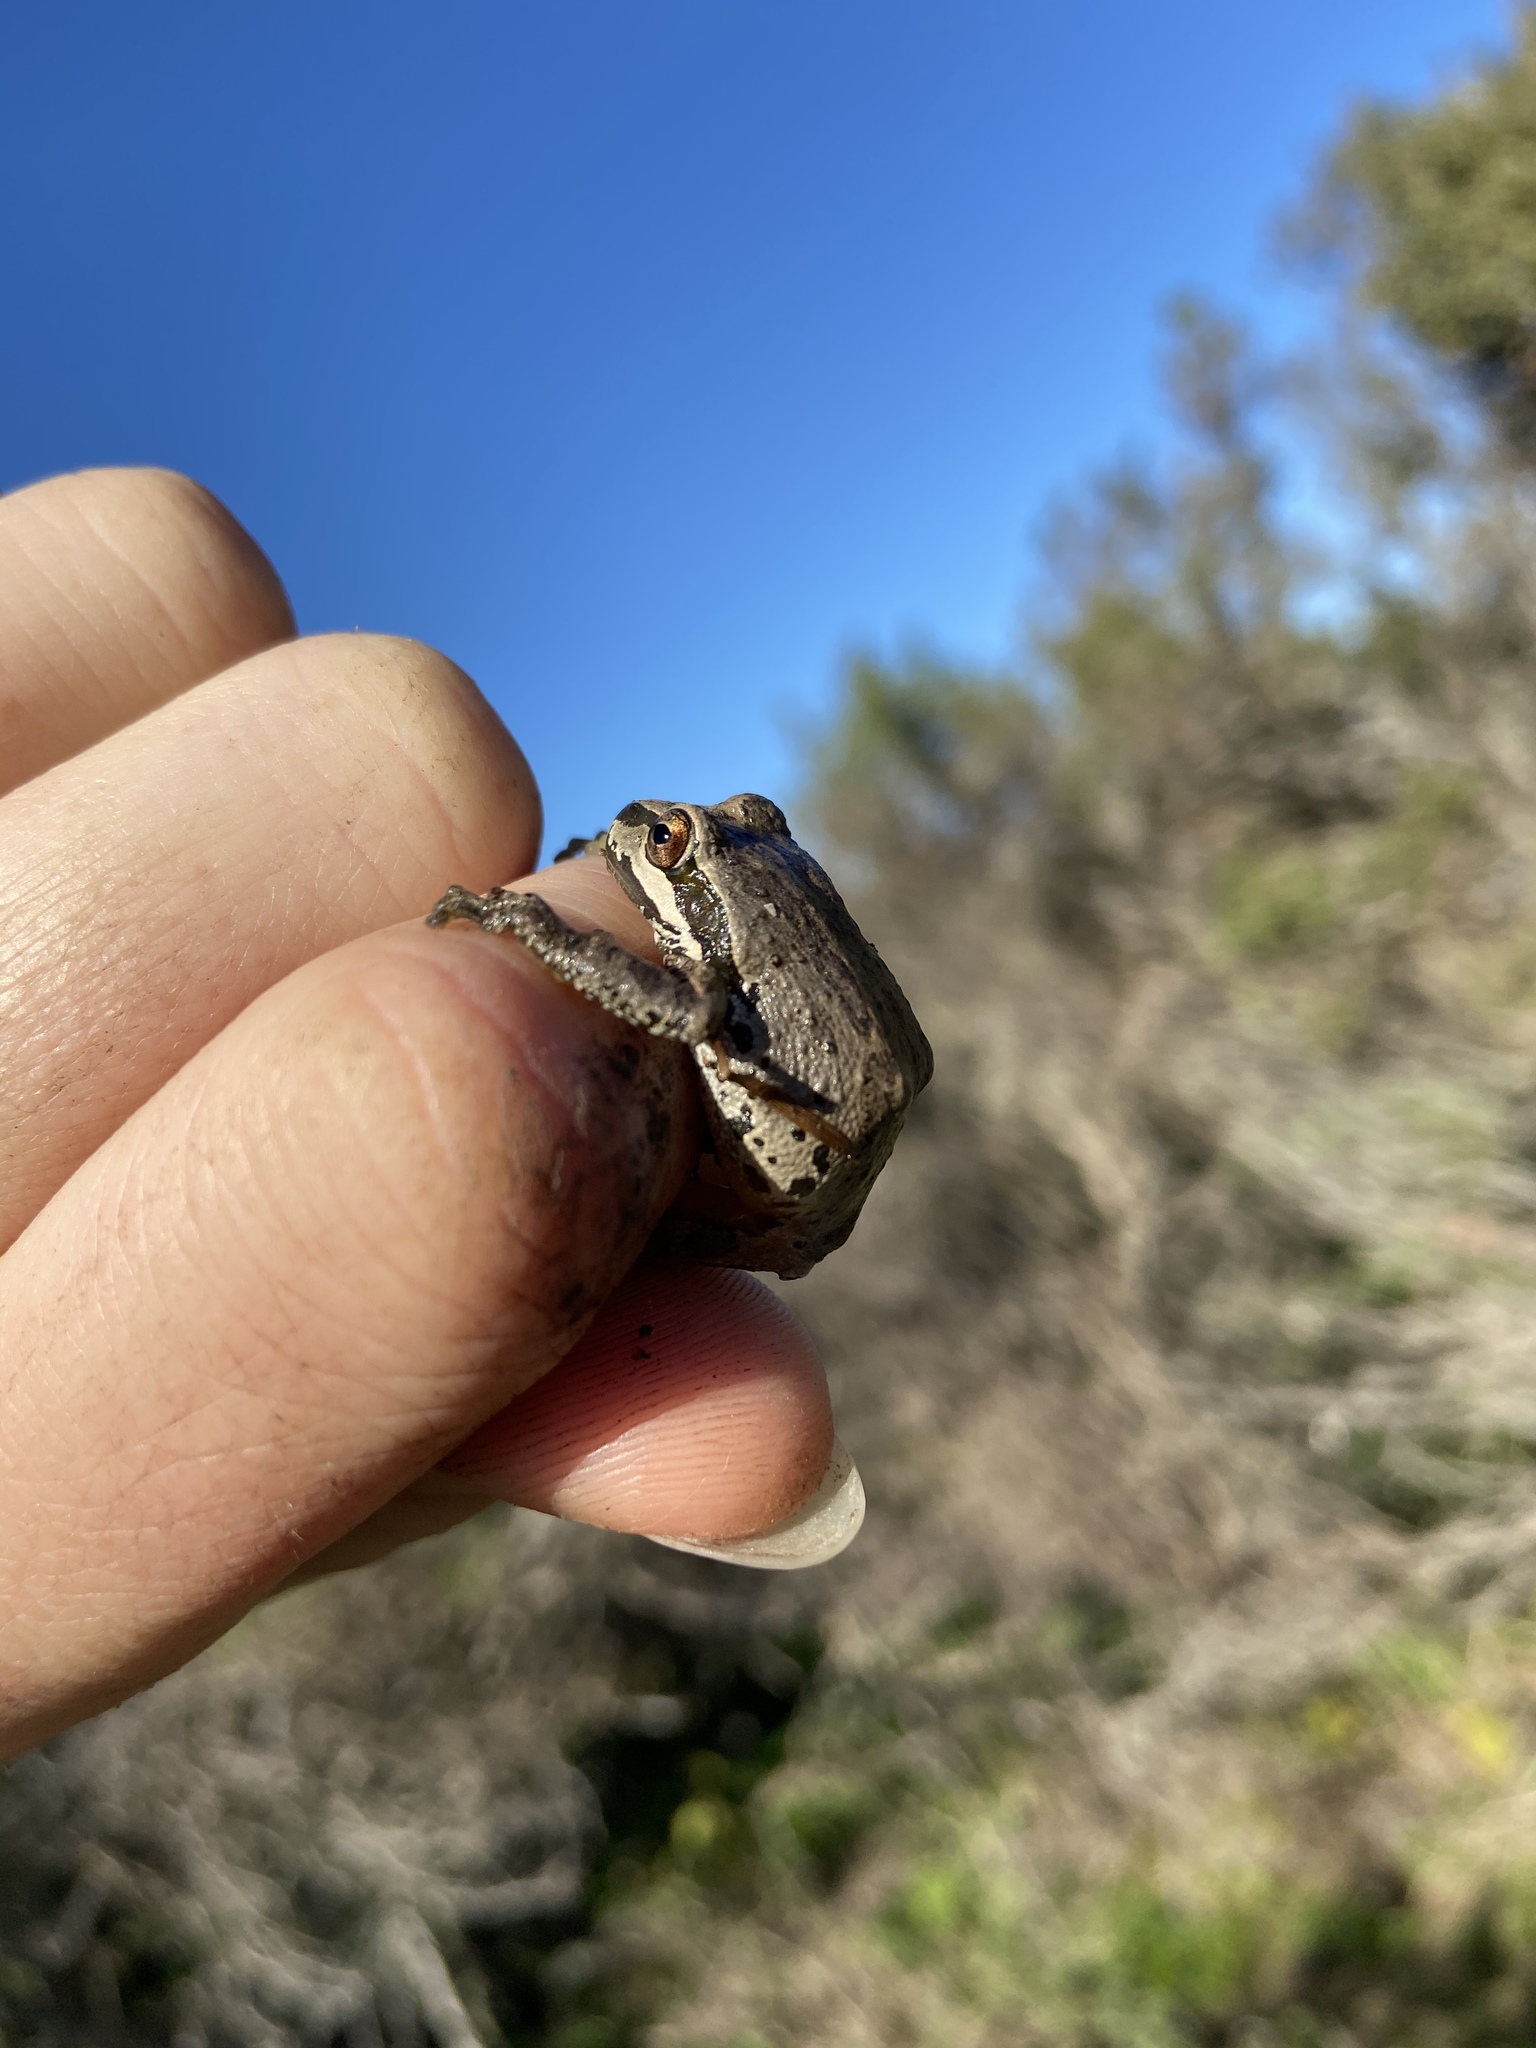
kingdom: Animalia
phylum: Chordata
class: Amphibia
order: Anura
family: Hylidae
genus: Pseudacris
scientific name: Pseudacris regilla
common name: Pacific chorus frog
